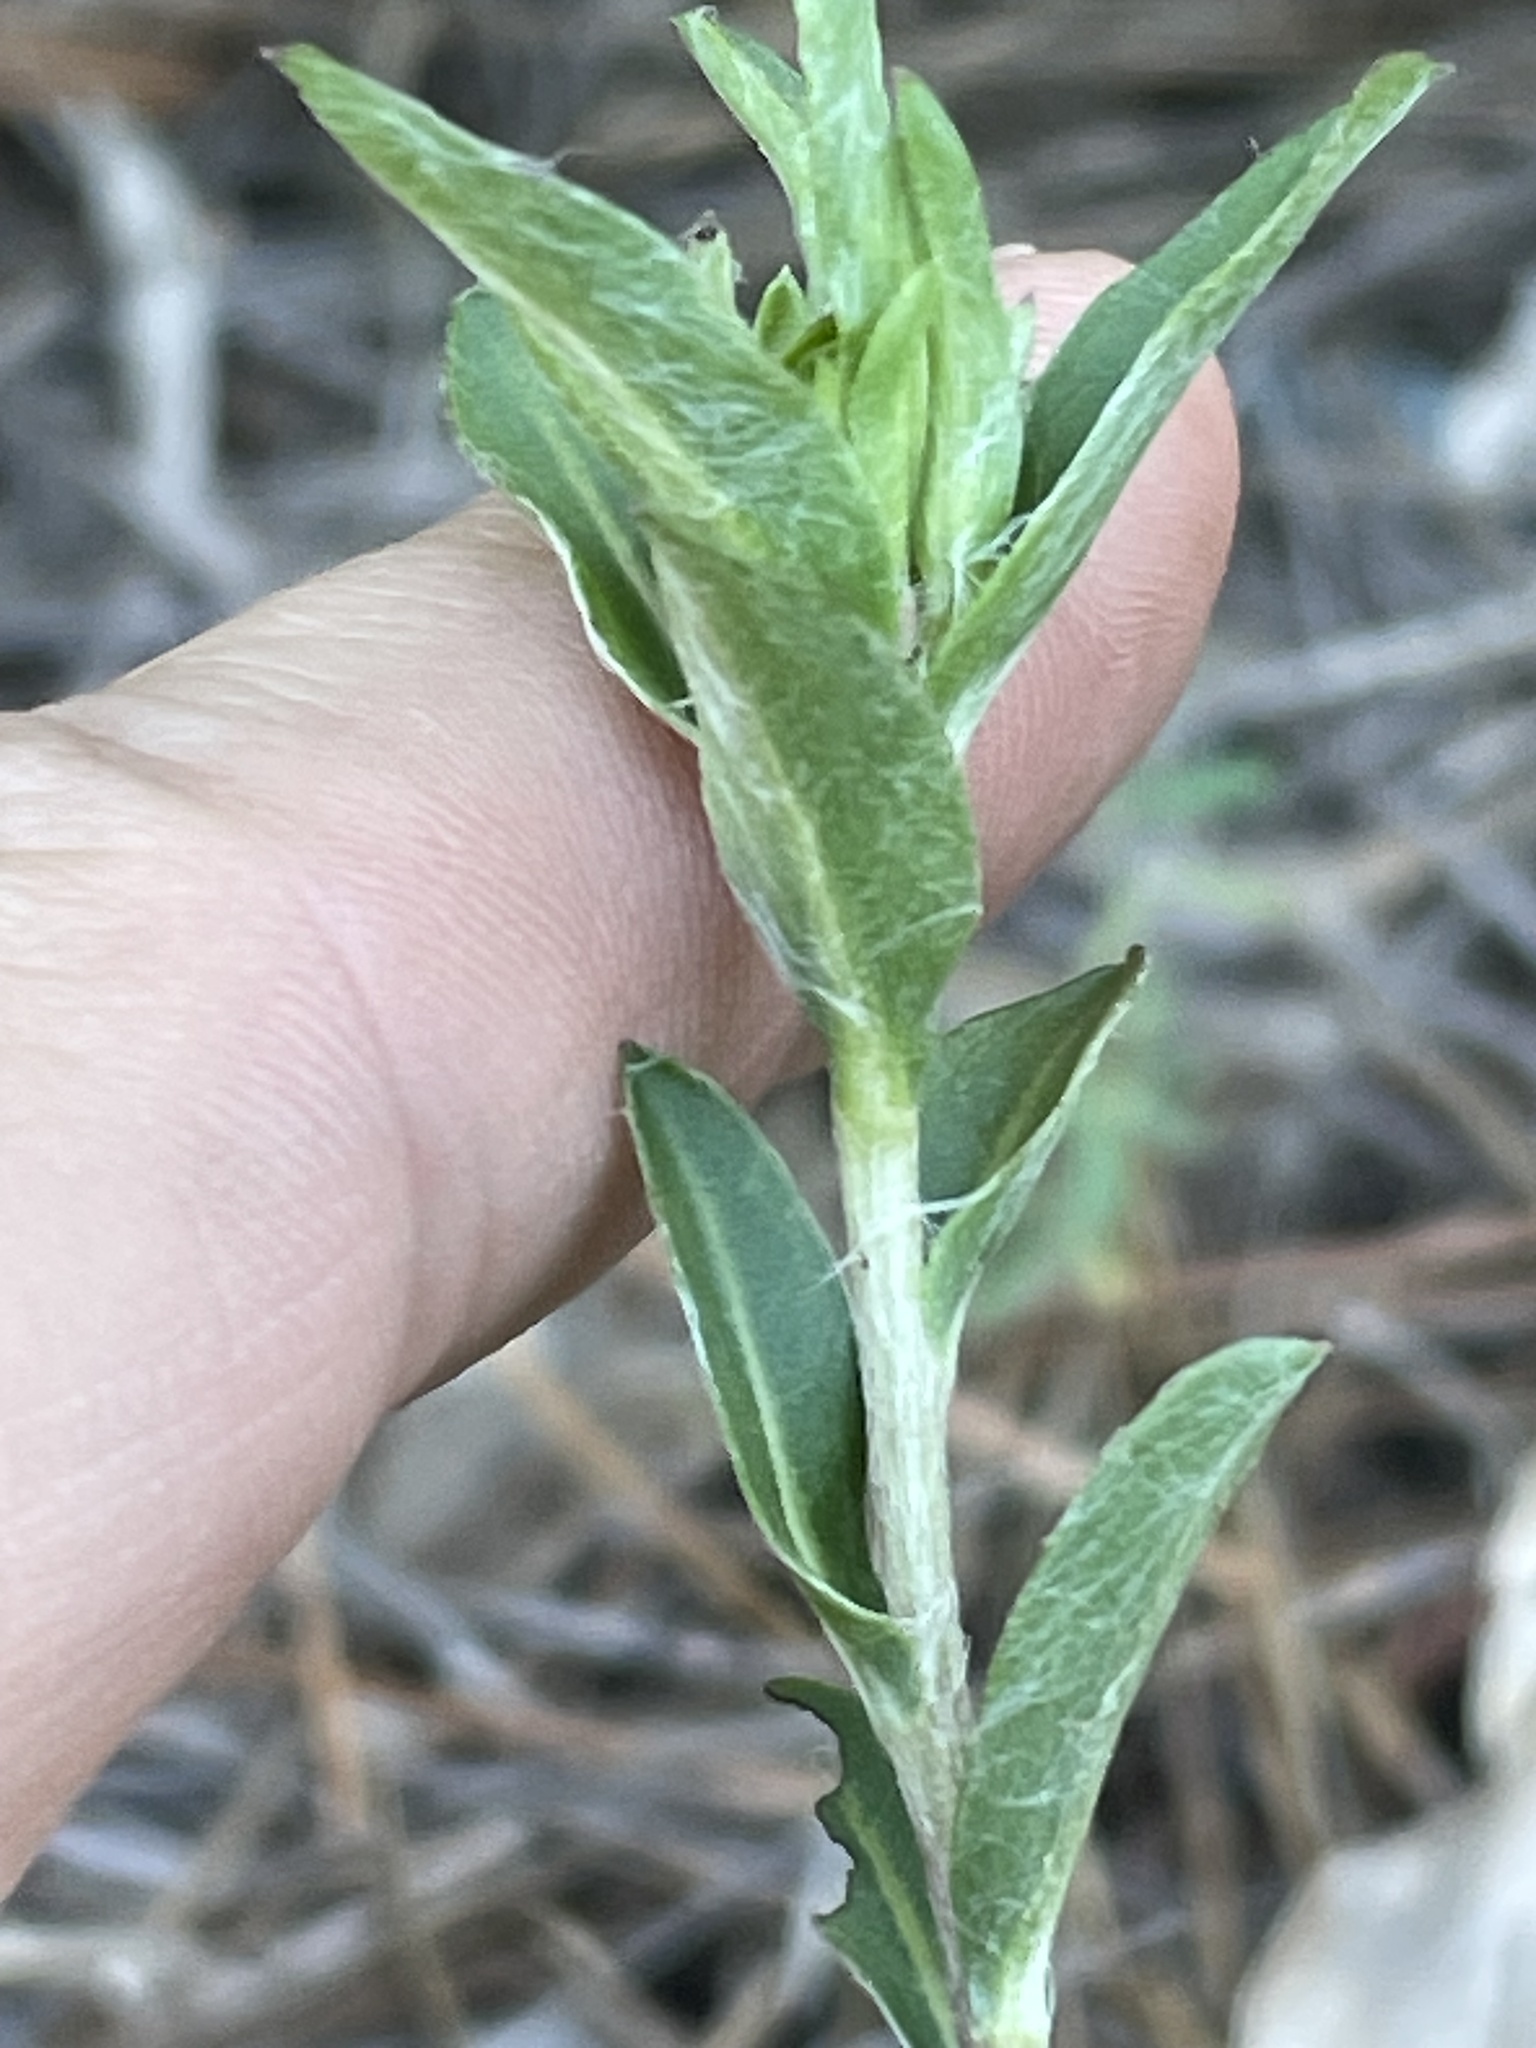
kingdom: Plantae
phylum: Tracheophyta
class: Magnoliopsida
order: Asterales
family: Asteraceae
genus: Chrysopsis
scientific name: Chrysopsis mariana
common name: Maryland golden-aster
